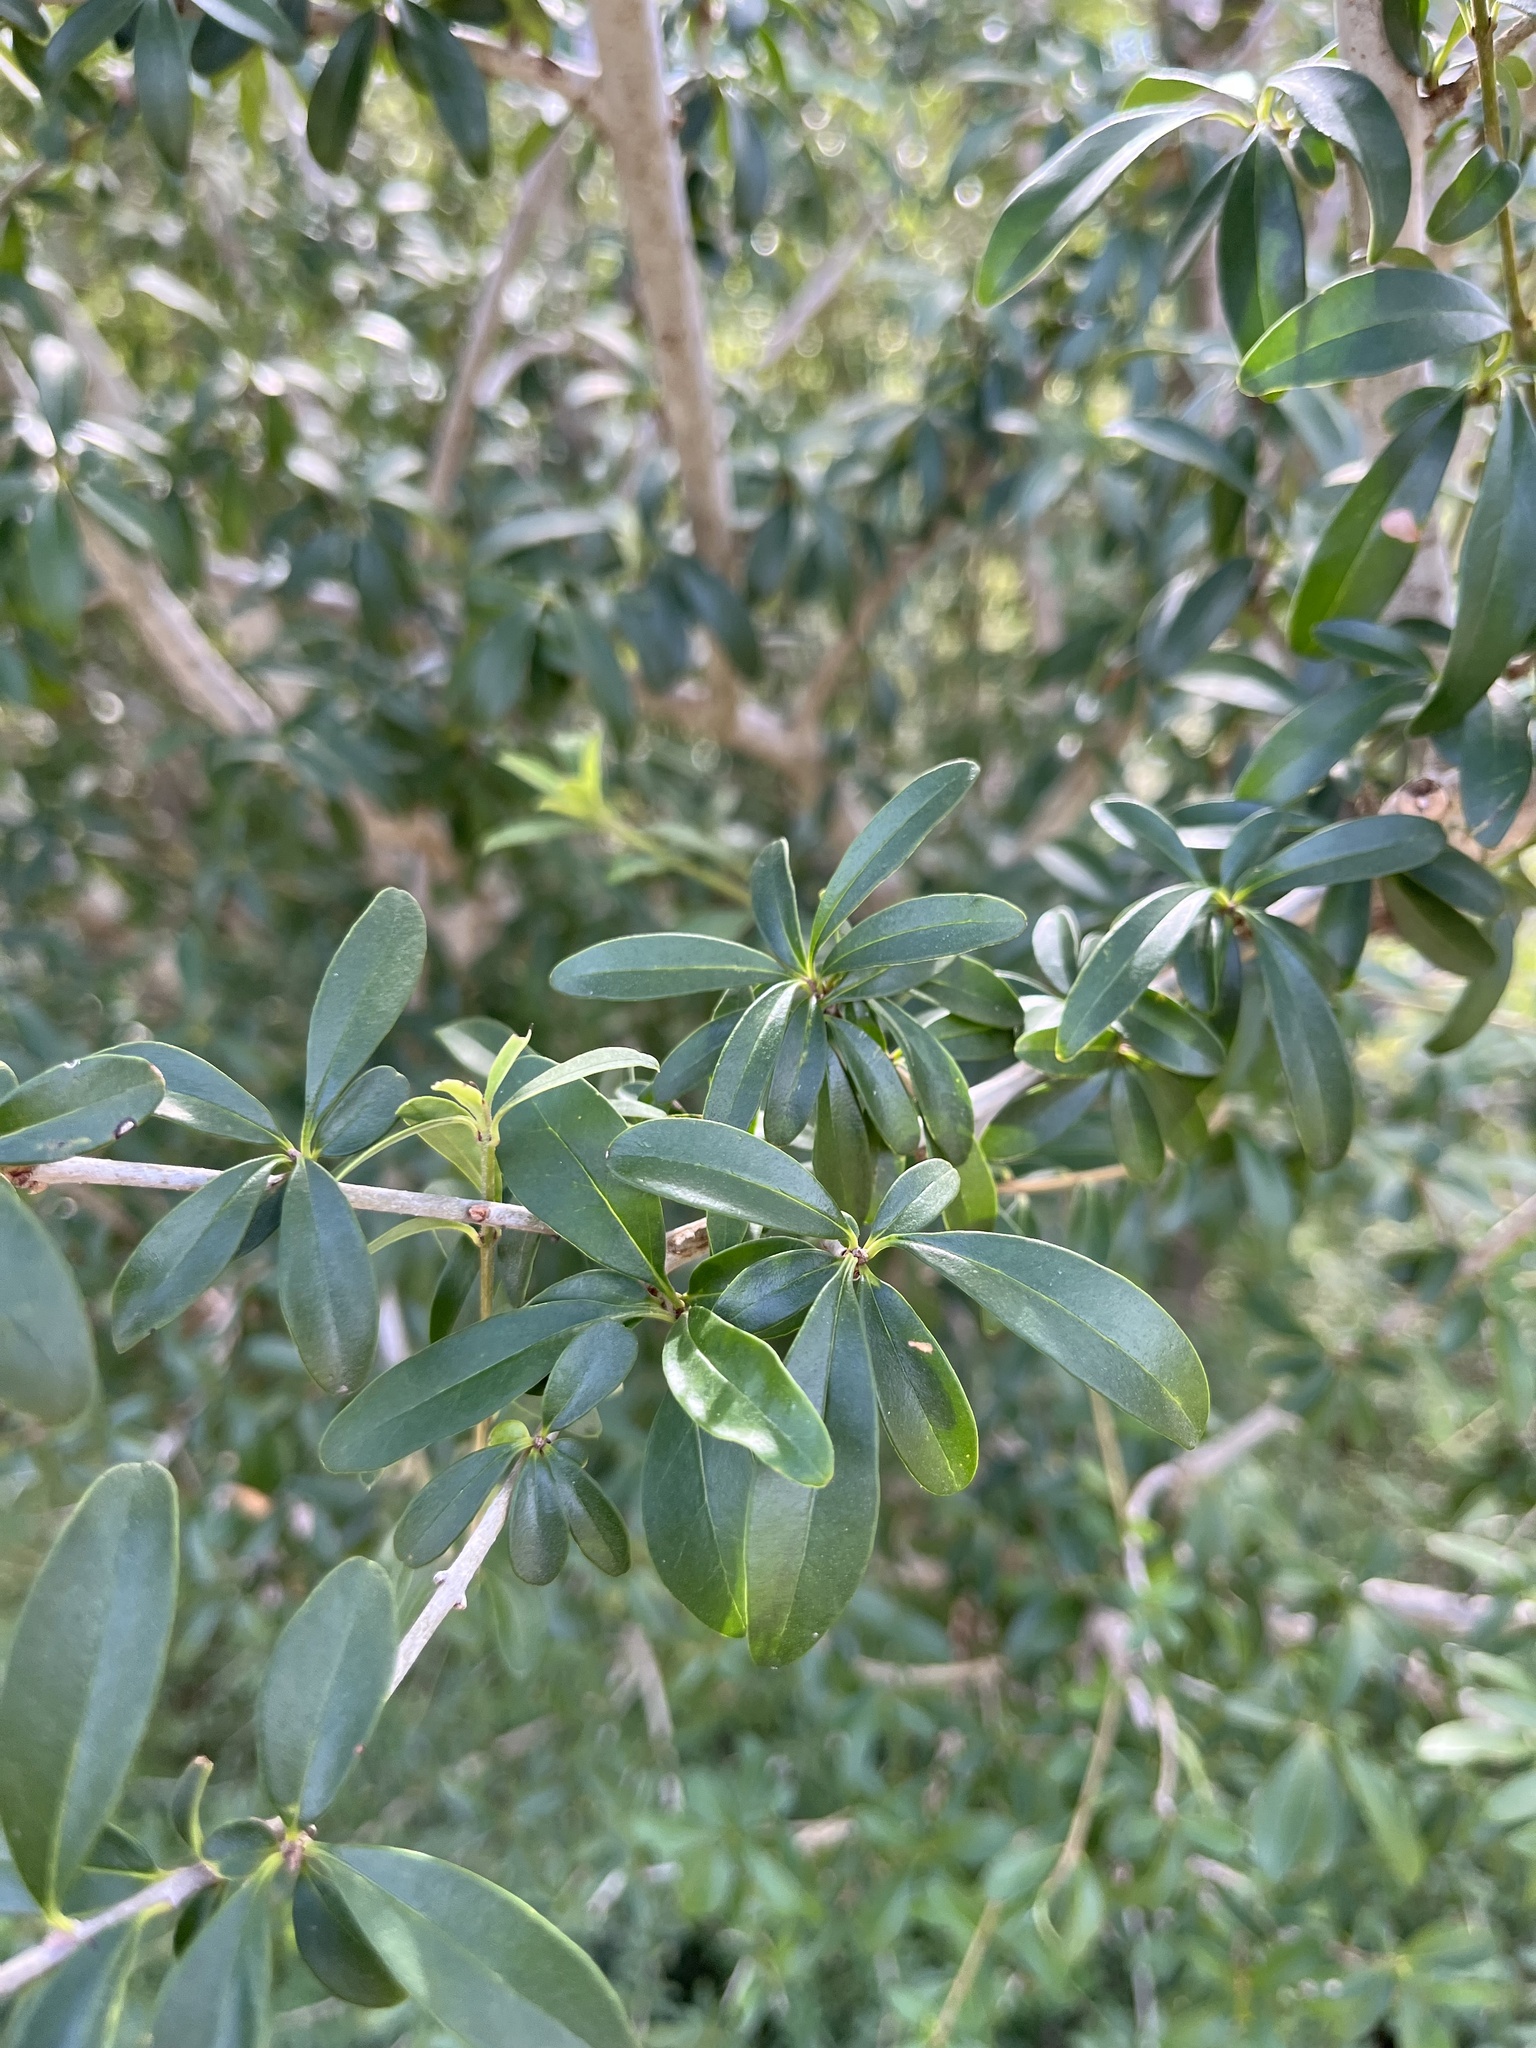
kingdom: Plantae
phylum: Tracheophyta
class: Magnoliopsida
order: Lamiales
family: Oleaceae
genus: Ligustrum
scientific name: Ligustrum quihoui
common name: Waxyleaf privet
